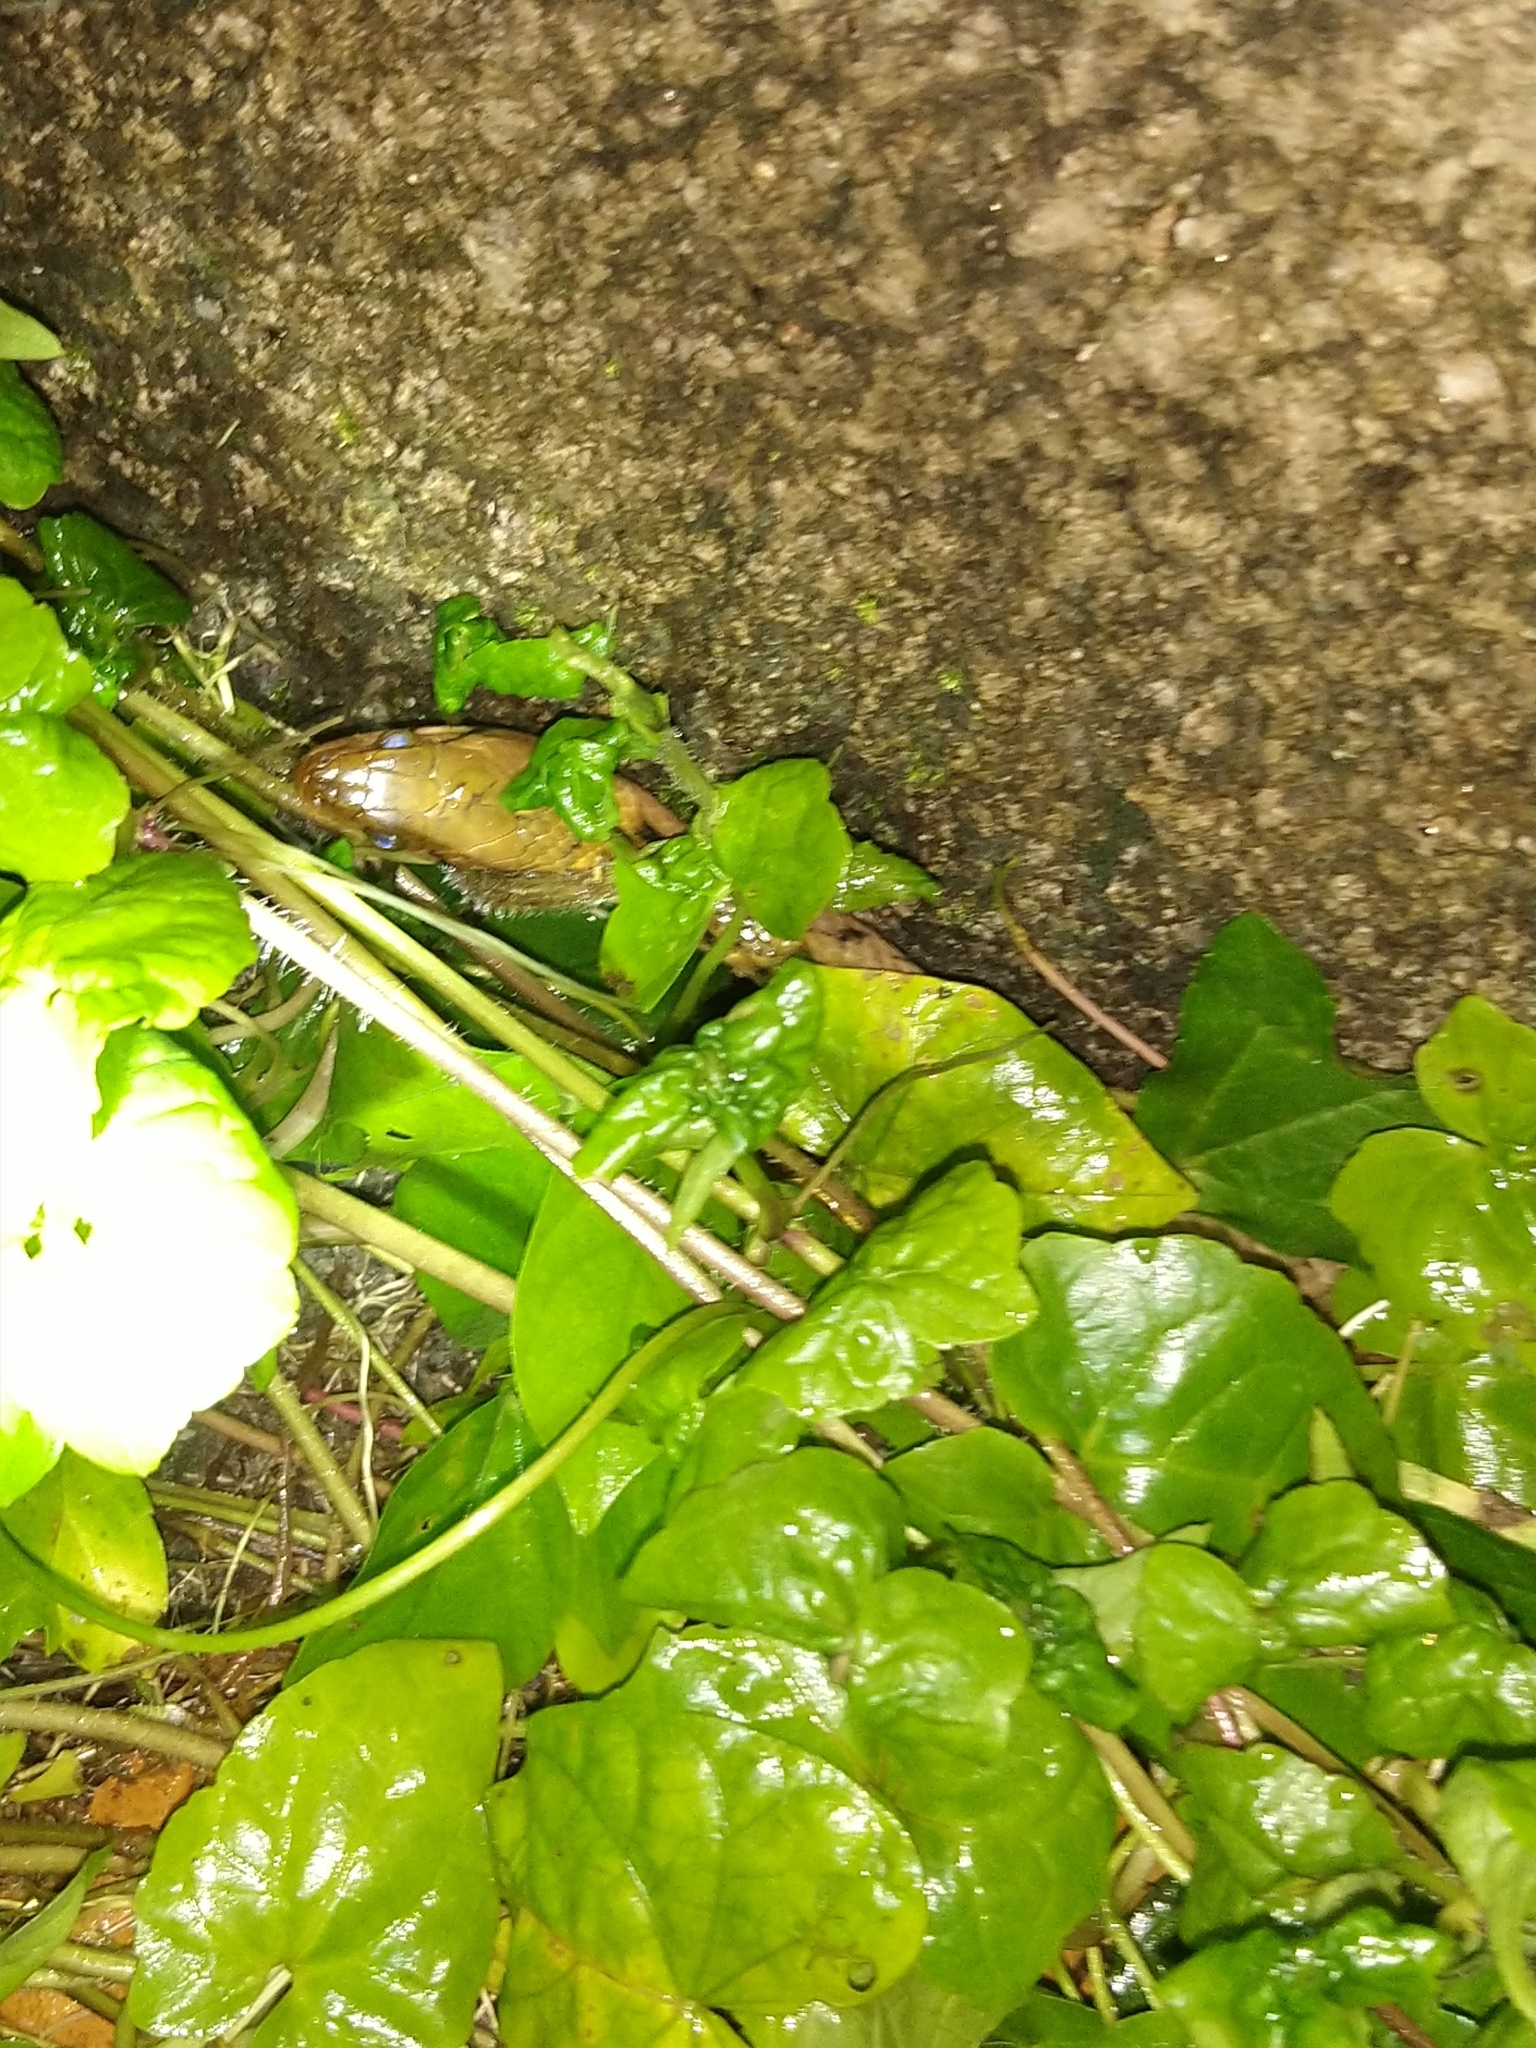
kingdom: Animalia
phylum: Chordata
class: Squamata
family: Colubridae
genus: Fowlea
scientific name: Fowlea piscator
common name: Asiatic water snake
